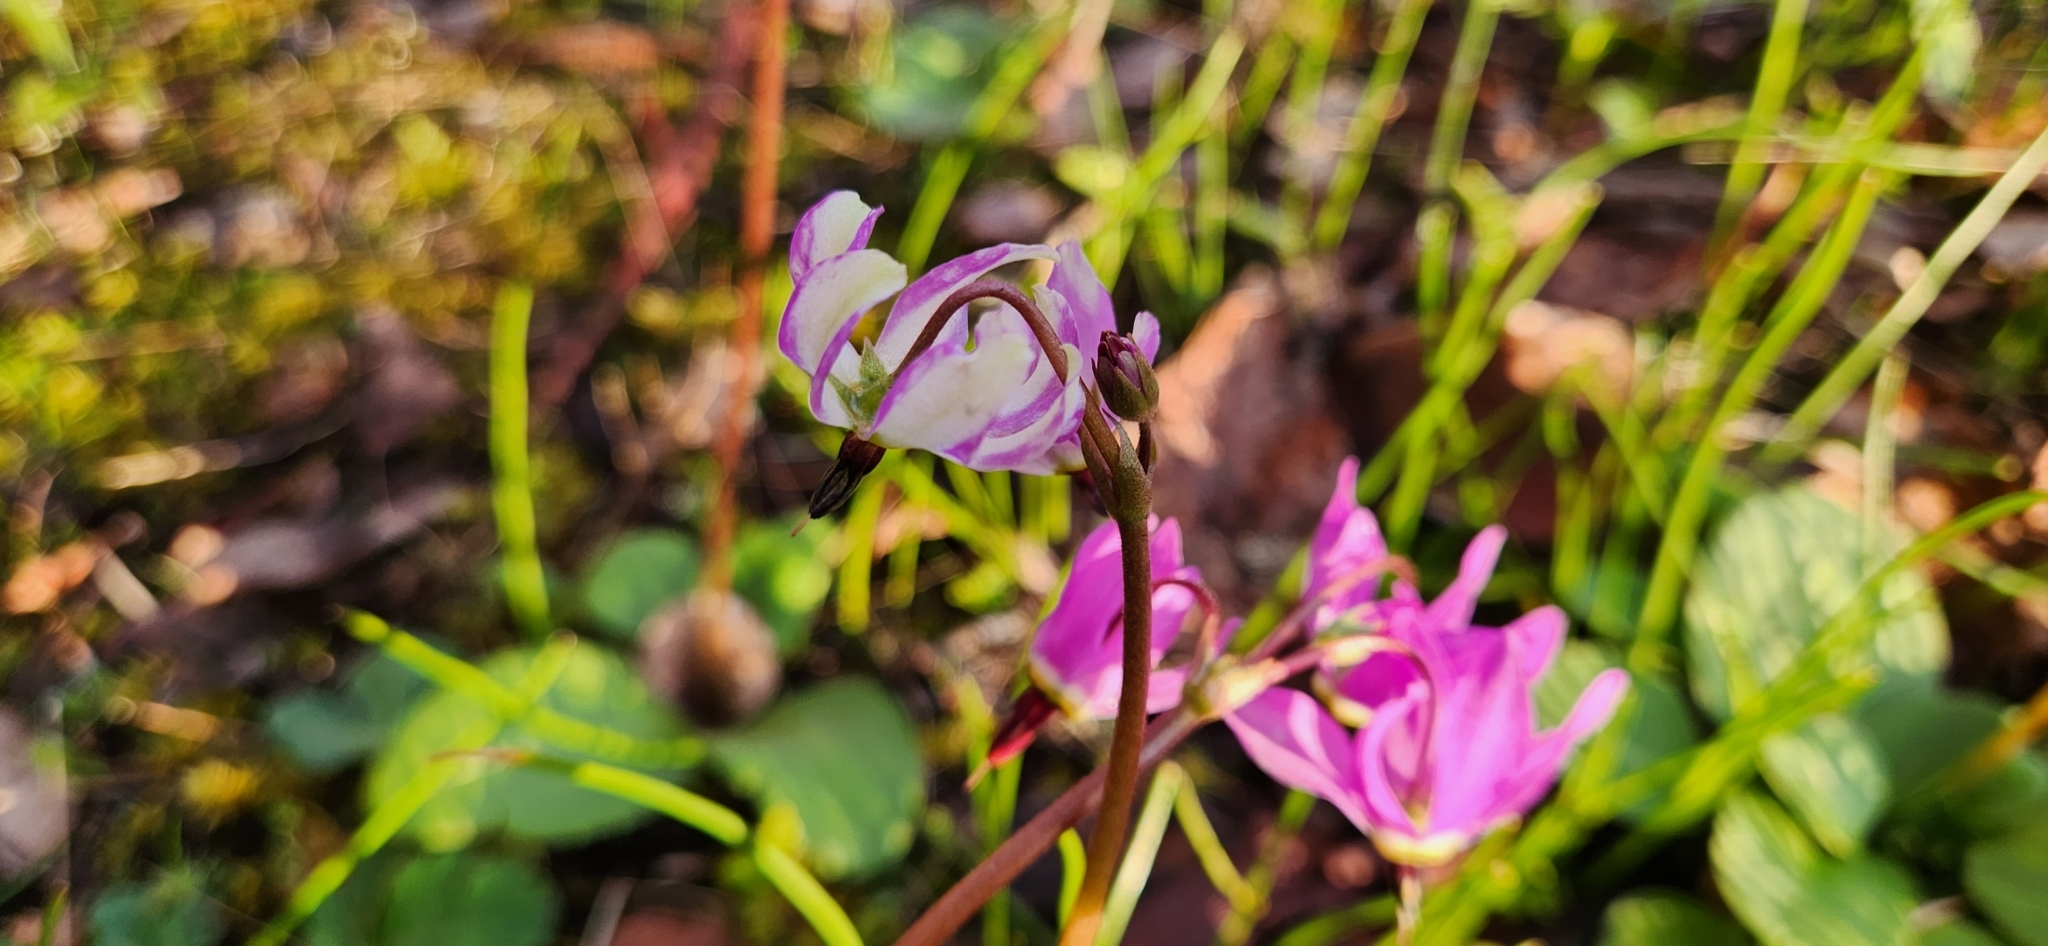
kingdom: Plantae
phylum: Tracheophyta
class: Magnoliopsida
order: Ericales
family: Primulaceae
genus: Dodecatheon
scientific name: Dodecatheon hendersonii
